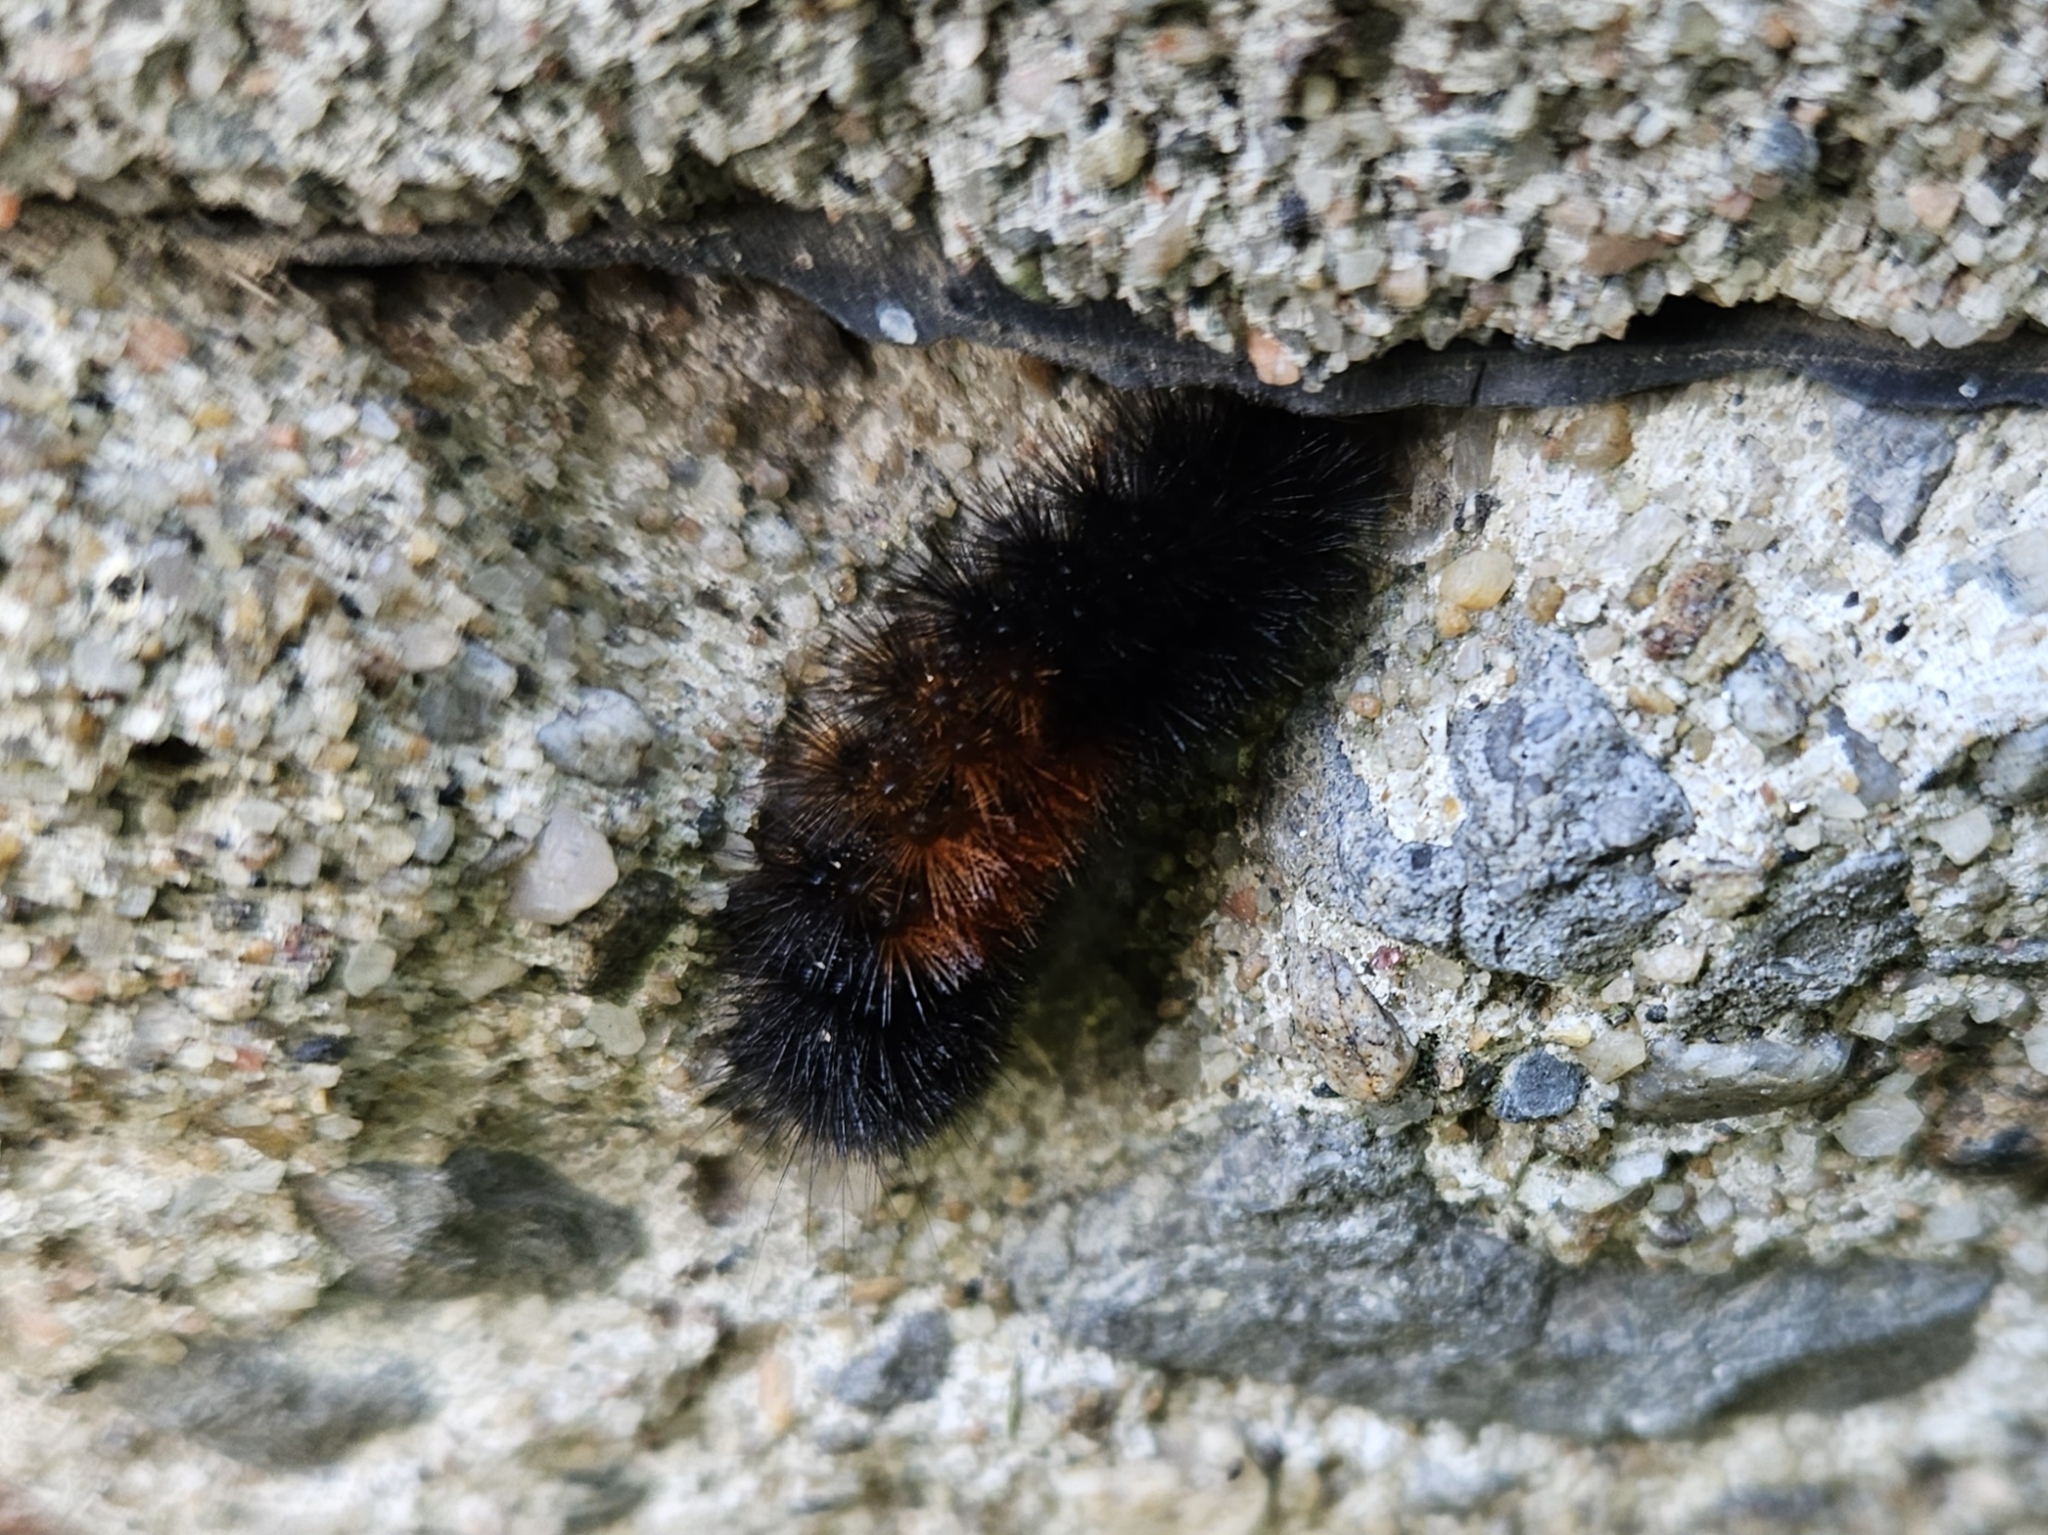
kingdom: Animalia
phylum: Arthropoda
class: Insecta
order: Lepidoptera
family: Erebidae
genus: Pyrrharctia
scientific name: Pyrrharctia isabella
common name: Isabella tiger moth
